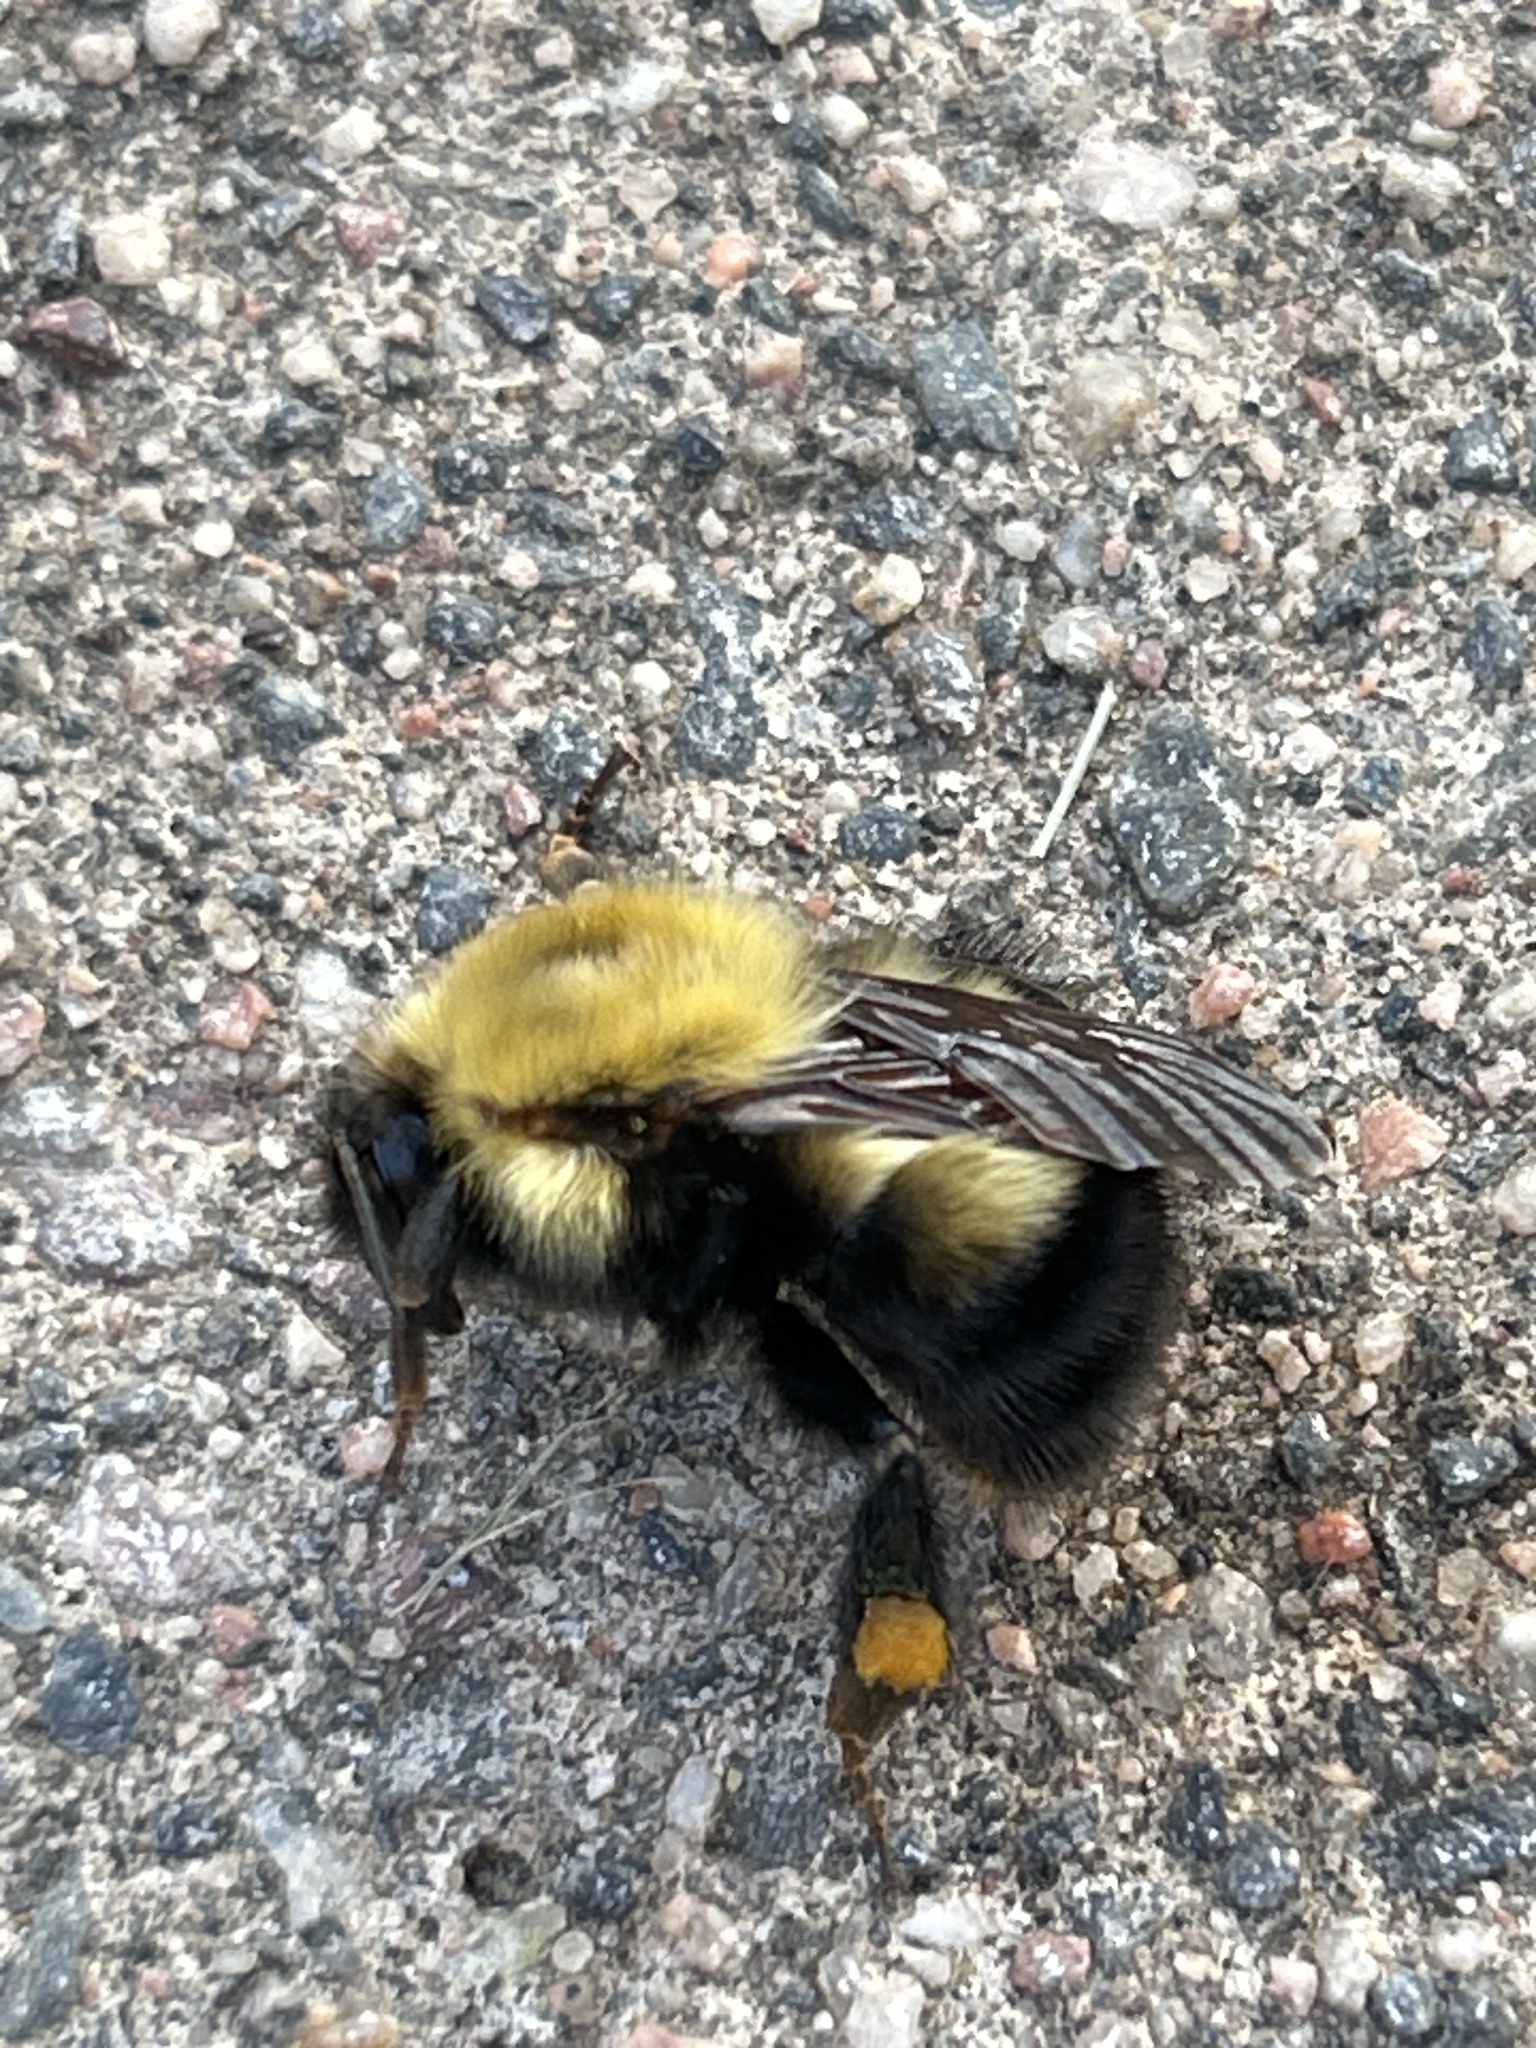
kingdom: Animalia
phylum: Arthropoda
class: Insecta
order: Hymenoptera
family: Apidae
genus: Bombus
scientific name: Bombus perplexus
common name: Confusing bumble bee
